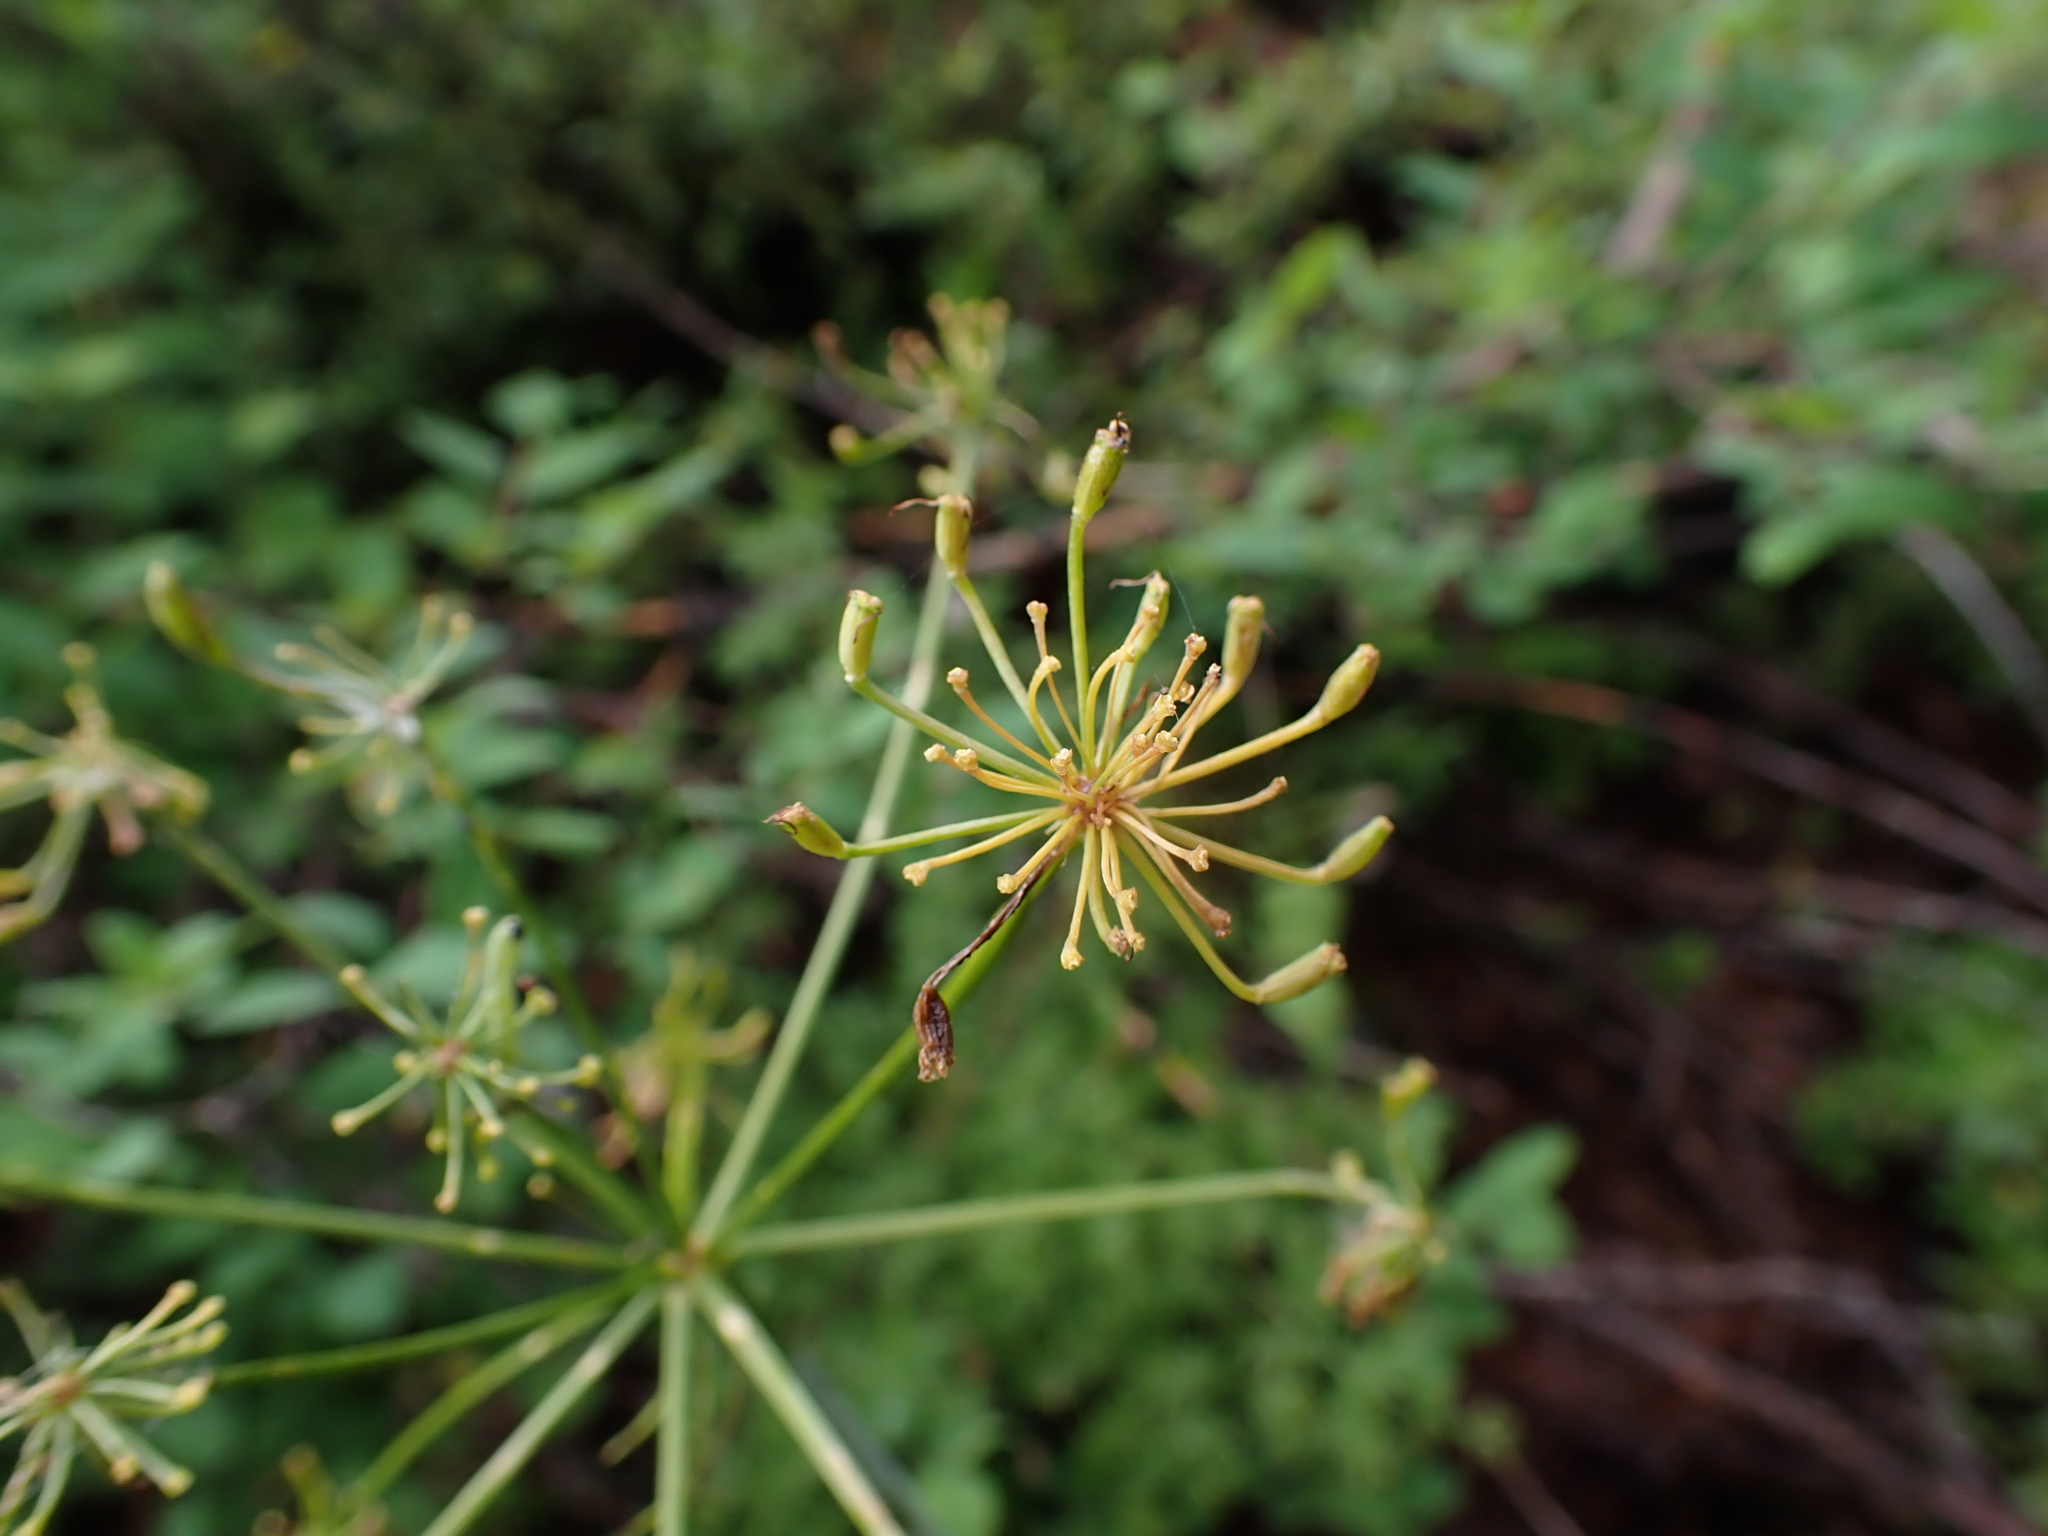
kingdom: Plantae
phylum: Tracheophyta
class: Magnoliopsida
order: Apiales
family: Apiaceae
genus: Lomatium
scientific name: Lomatium multifidum
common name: Carrot-leaved biscuitroot
